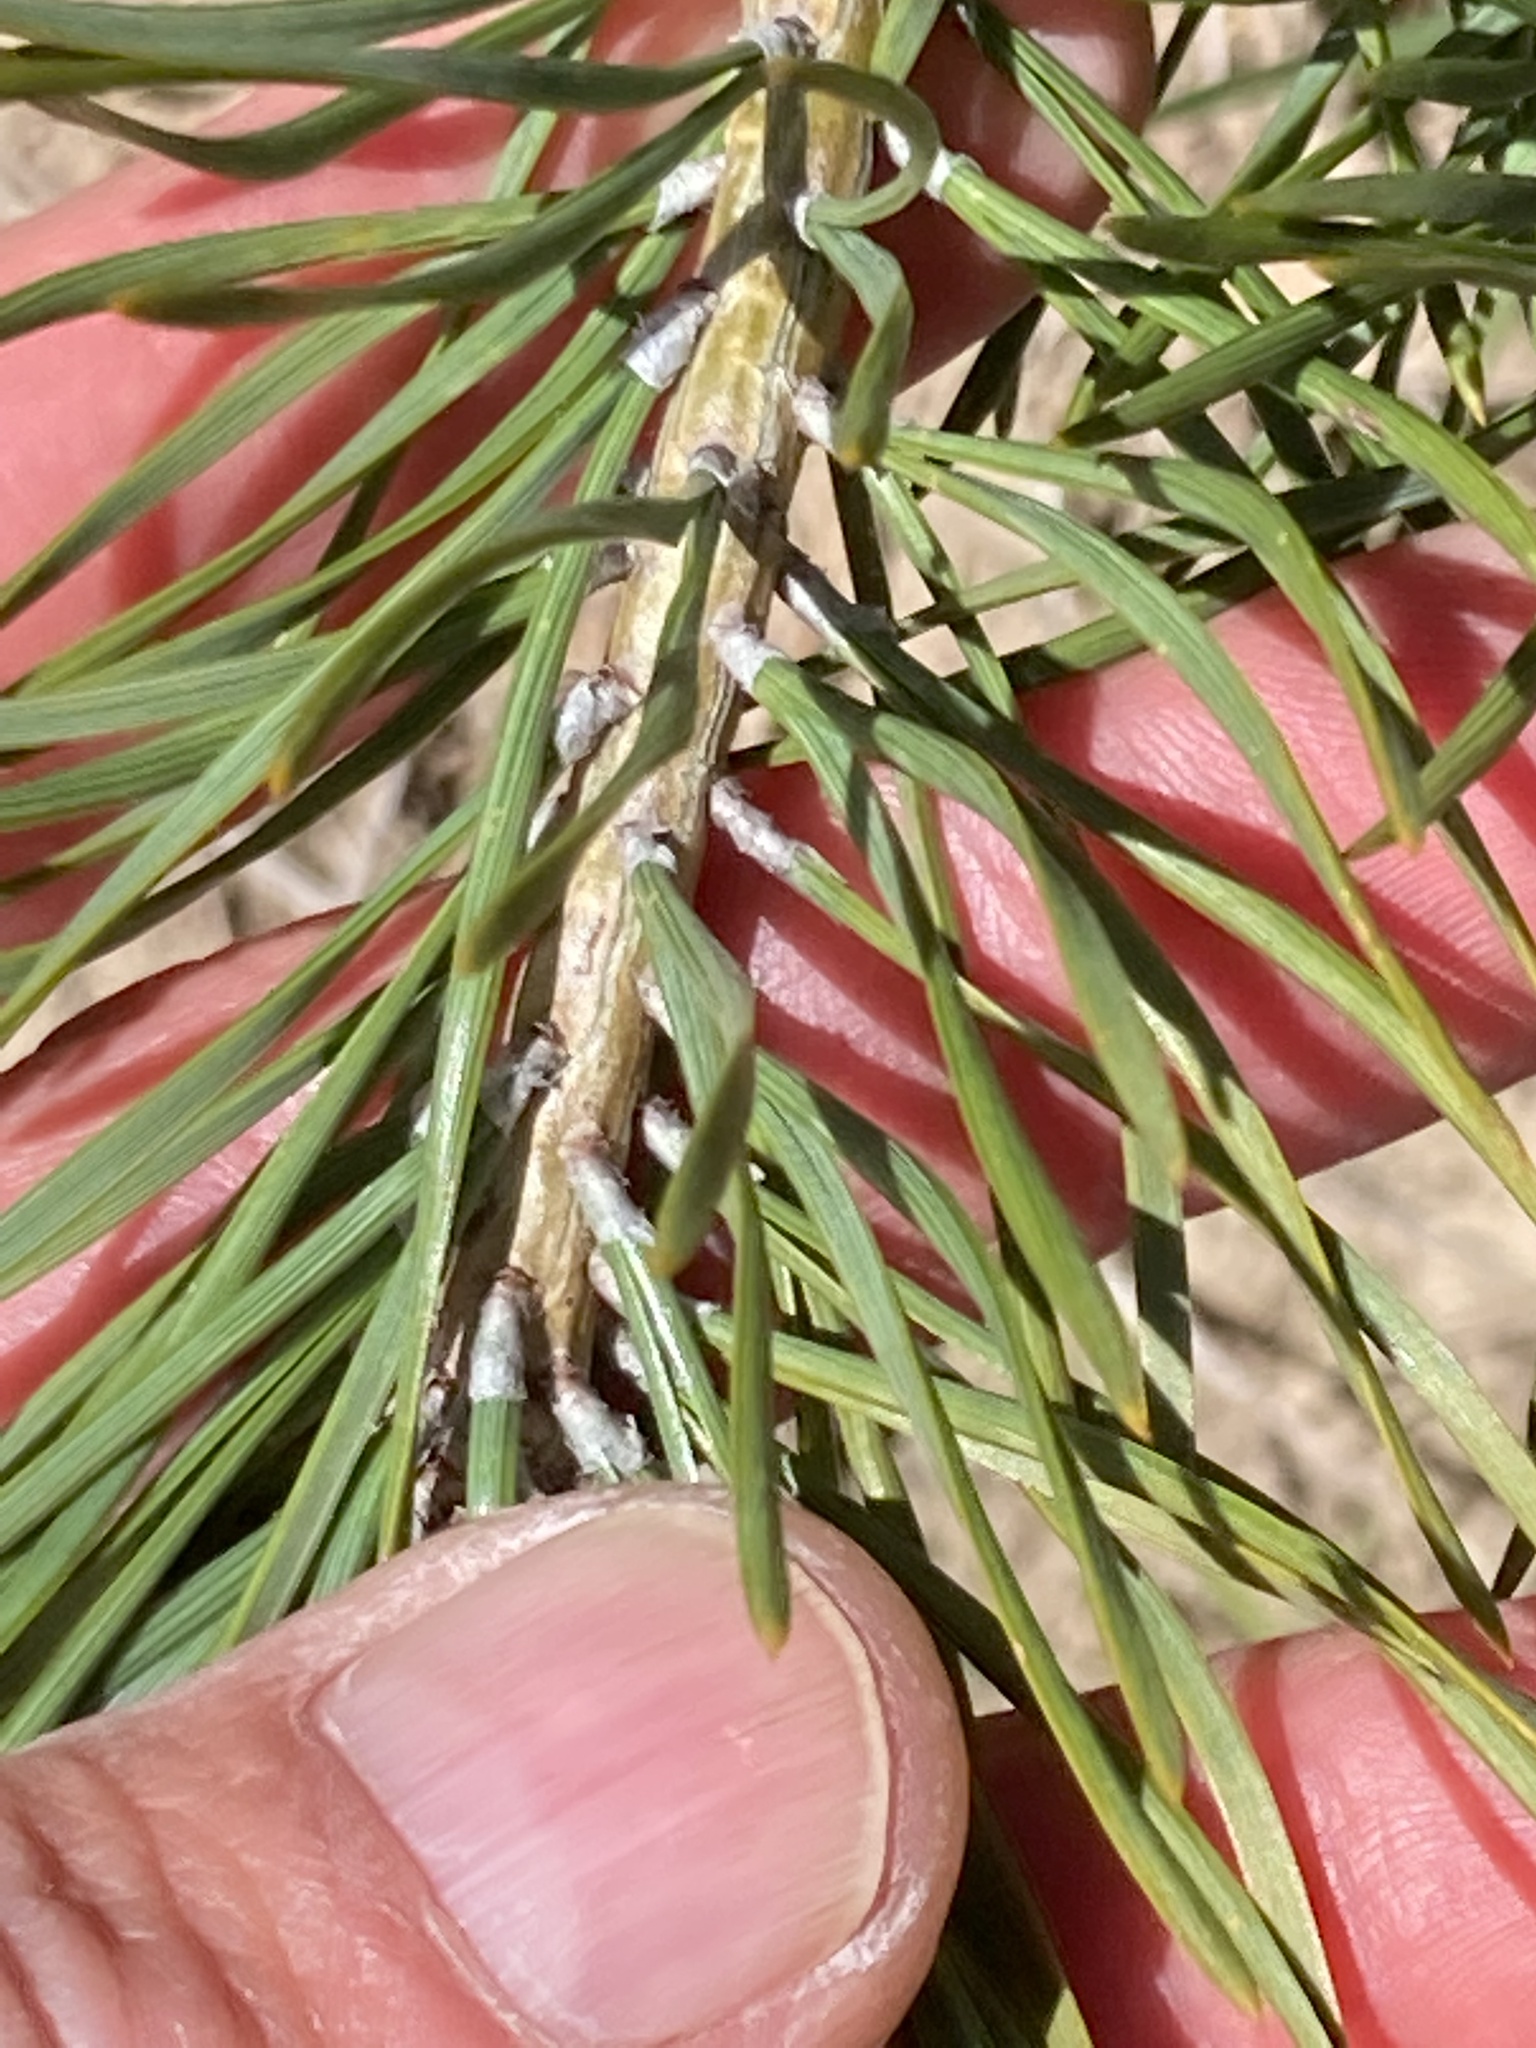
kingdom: Plantae
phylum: Tracheophyta
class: Pinopsida
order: Pinales
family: Pinaceae
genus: Pinus
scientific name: Pinus sylvestris
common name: Scots pine
